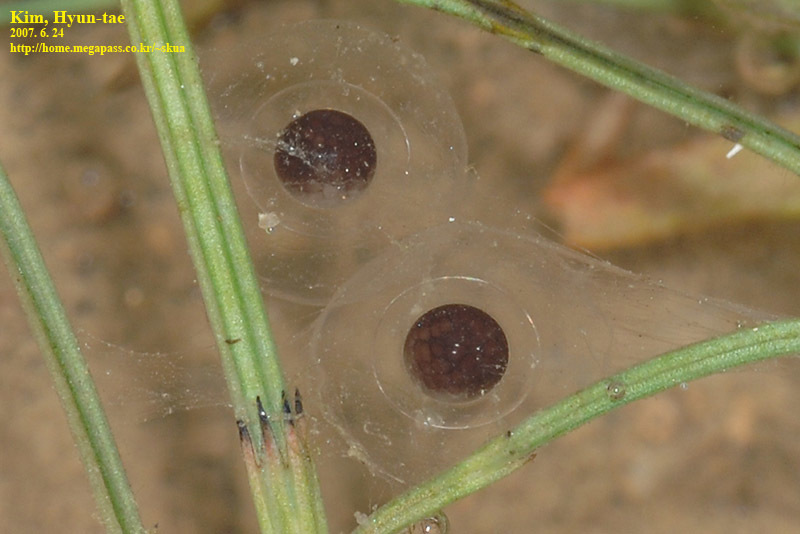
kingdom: Animalia
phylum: Chordata
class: Amphibia
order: Anura
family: Bombinatoridae
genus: Bombina
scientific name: Bombina orientalis
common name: Oriental firebelly toad
